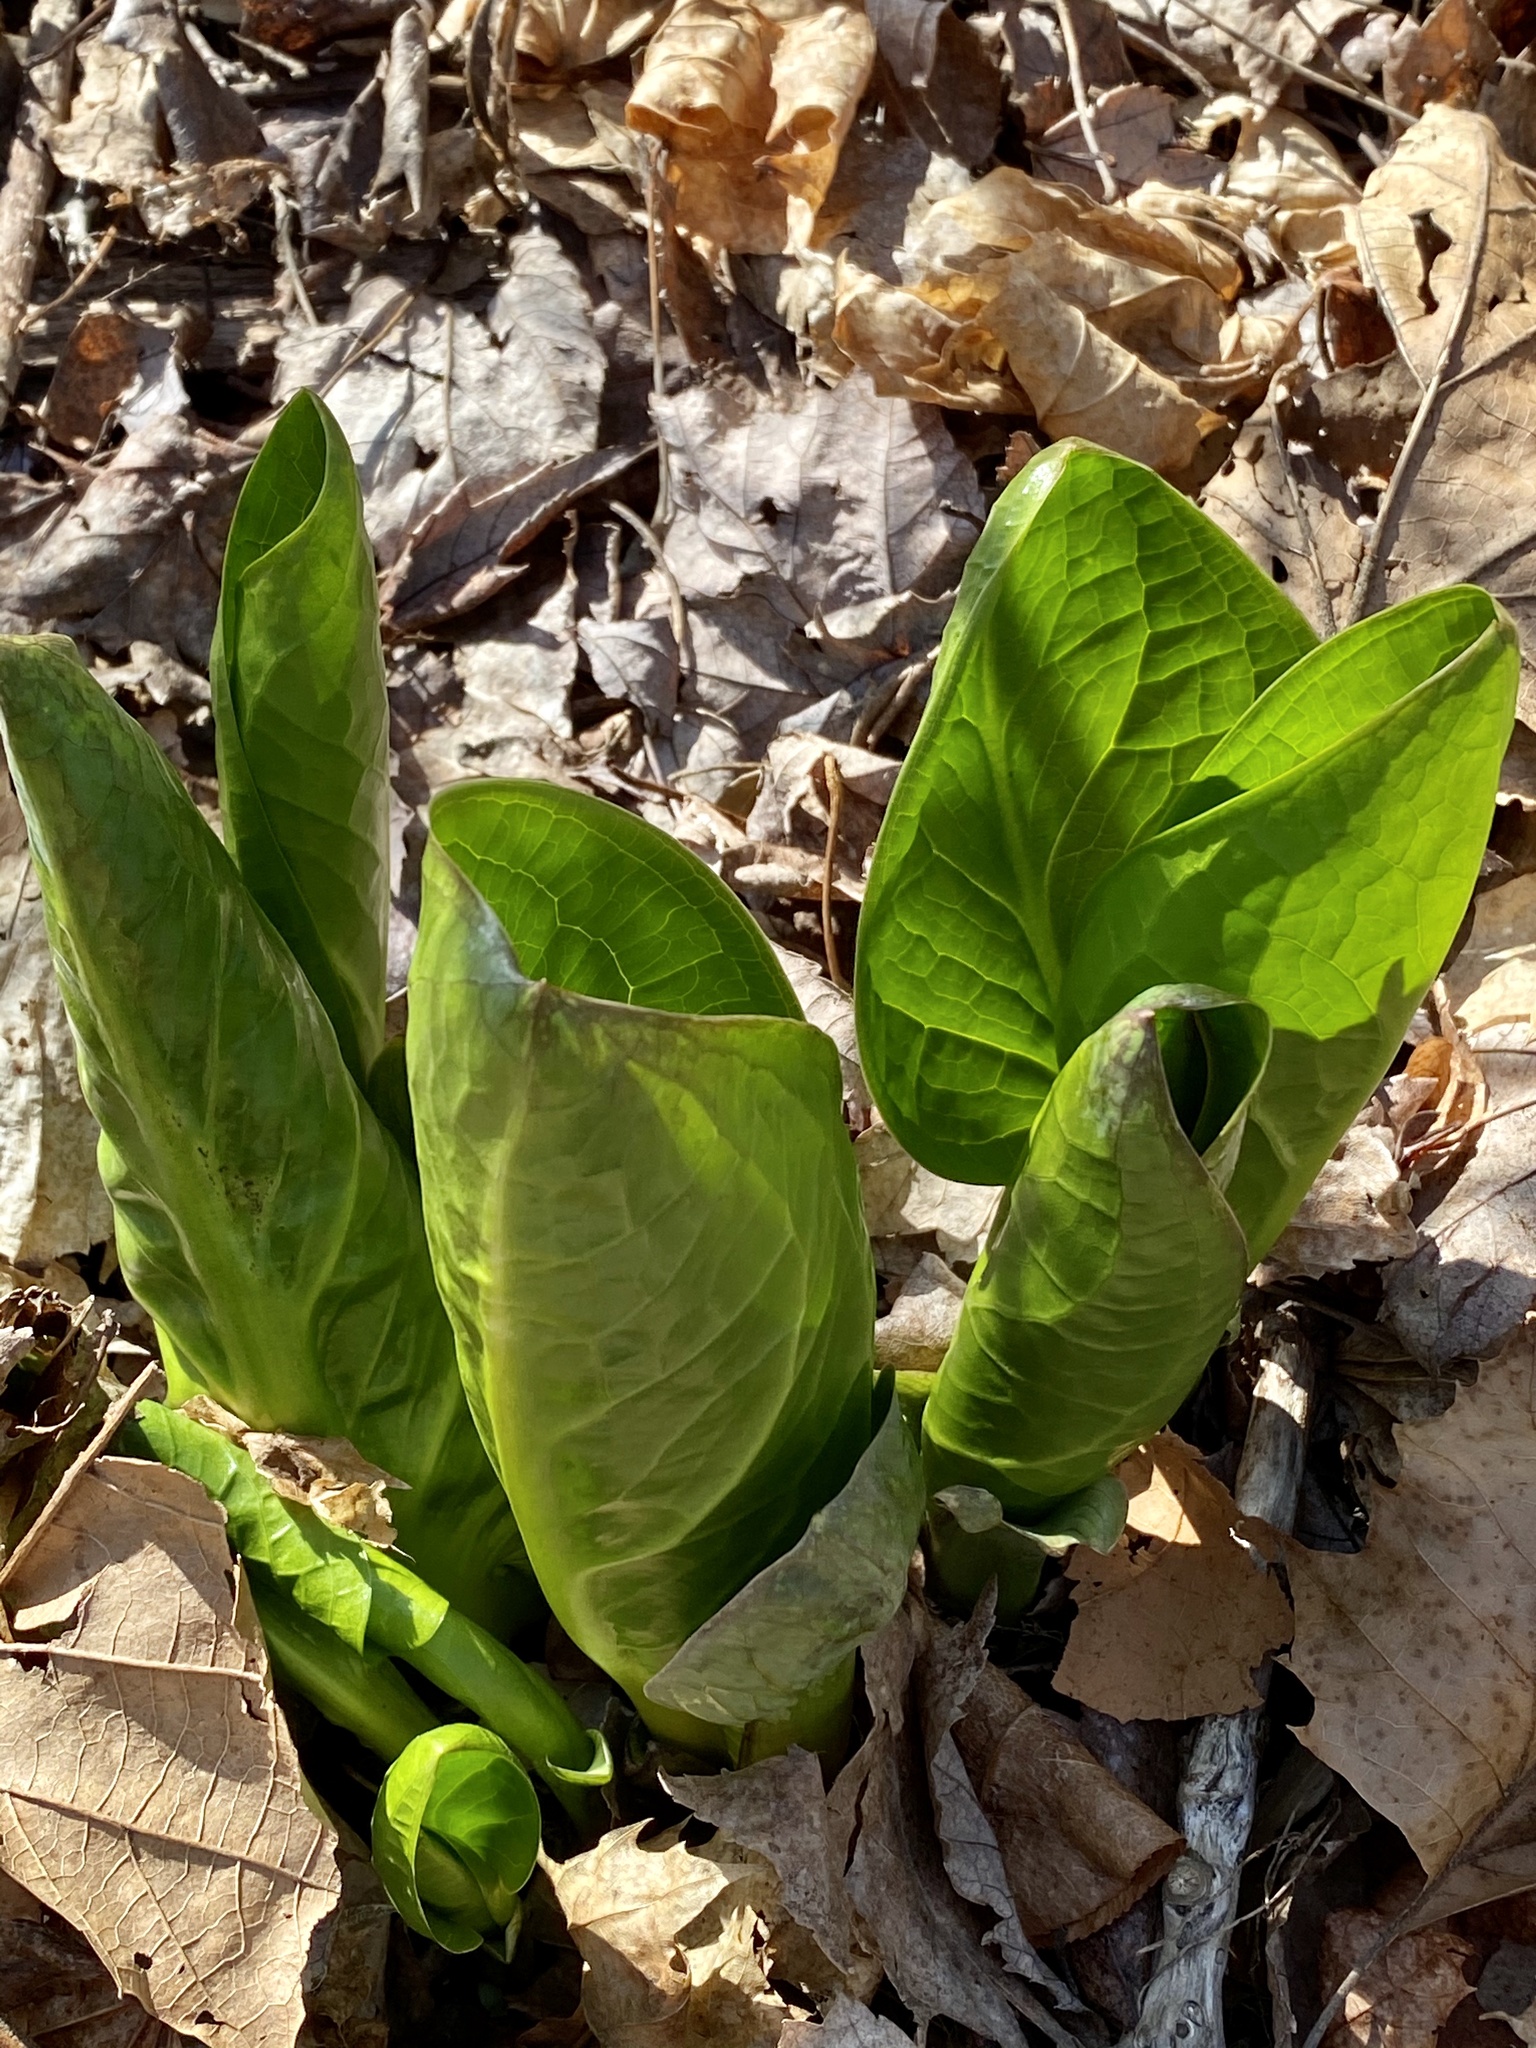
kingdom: Plantae
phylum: Tracheophyta
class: Liliopsida
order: Alismatales
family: Araceae
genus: Symplocarpus
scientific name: Symplocarpus foetidus
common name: Eastern skunk cabbage
